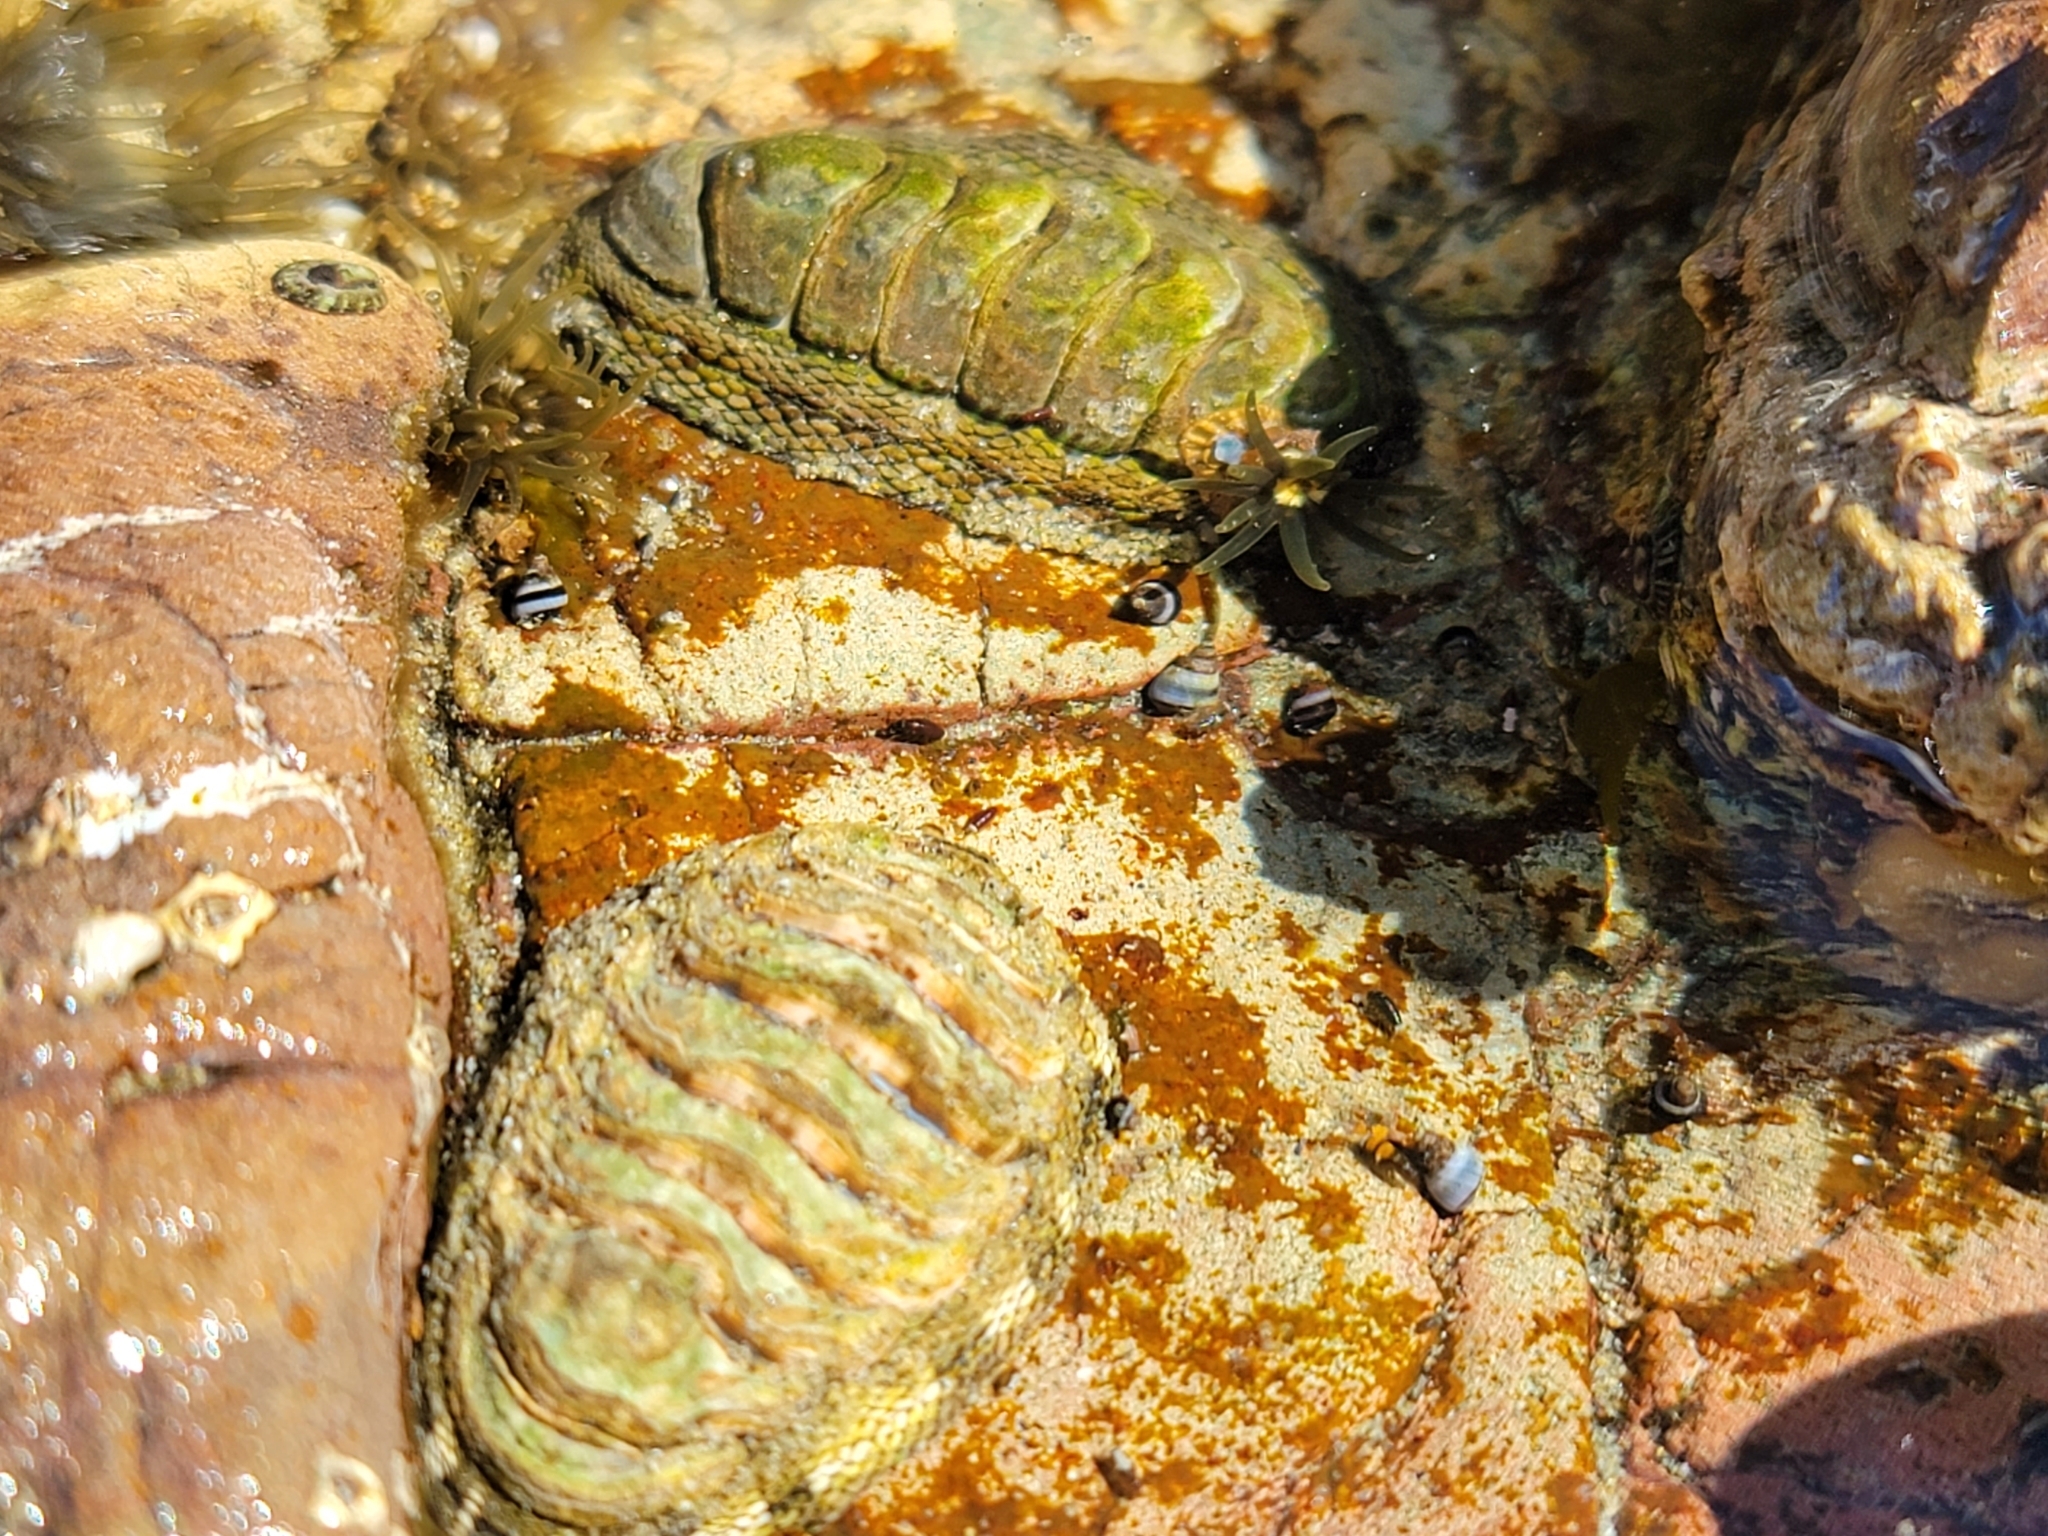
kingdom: Animalia
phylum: Mollusca
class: Polyplacophora
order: Chitonida
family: Chitonidae
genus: Sypharochiton
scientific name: Sypharochiton pelliserpentis
